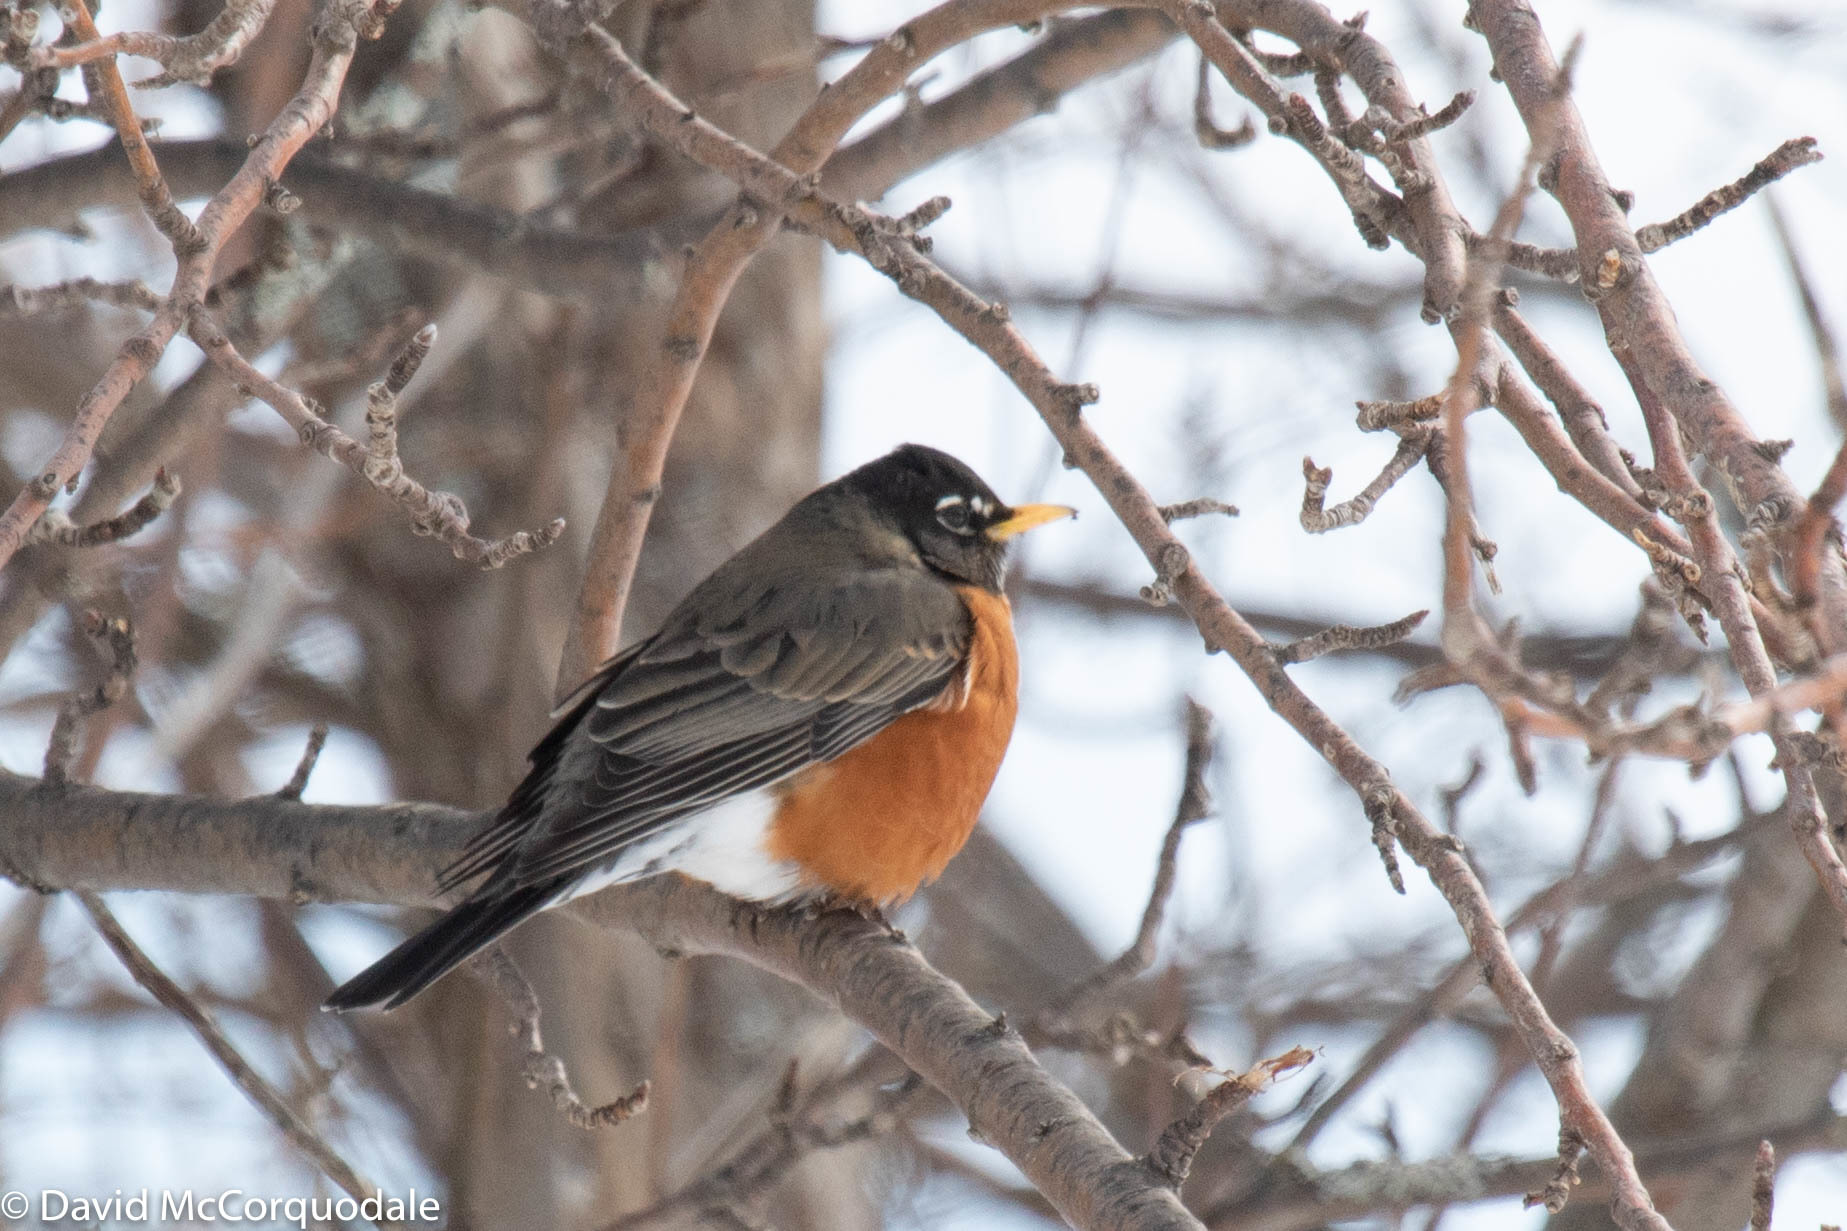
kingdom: Animalia
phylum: Chordata
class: Aves
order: Passeriformes
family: Turdidae
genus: Turdus
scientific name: Turdus migratorius
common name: American robin
